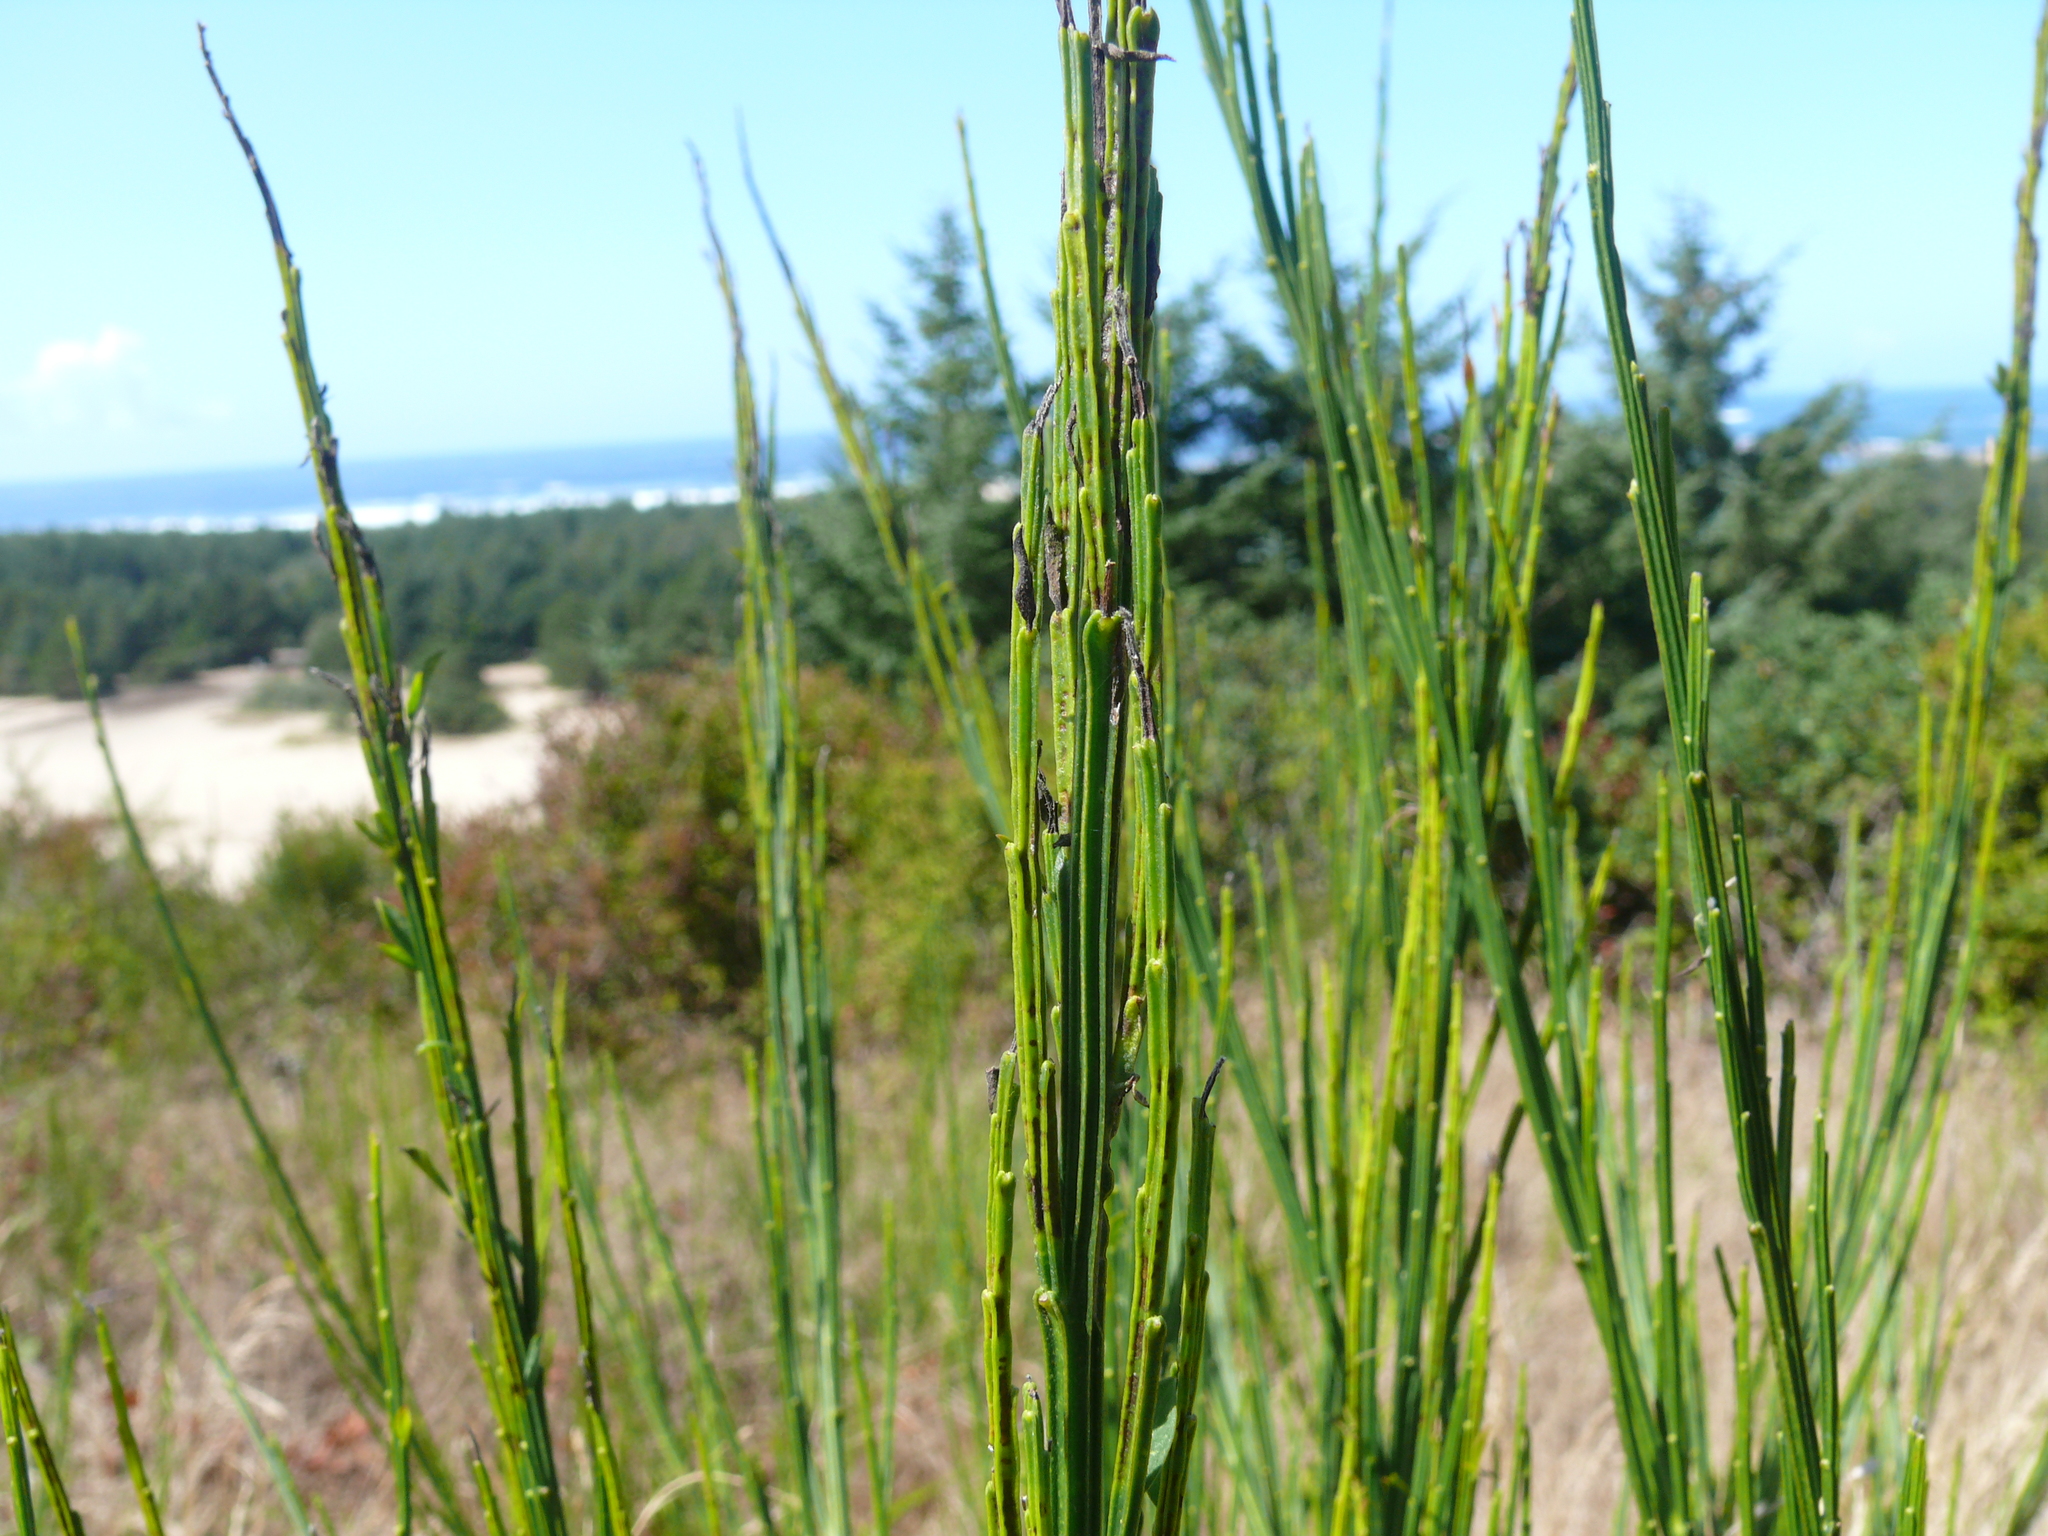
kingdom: Plantae
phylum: Tracheophyta
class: Magnoliopsida
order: Fabales
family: Fabaceae
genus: Cytisus
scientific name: Cytisus scoparius
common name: Scotch broom
